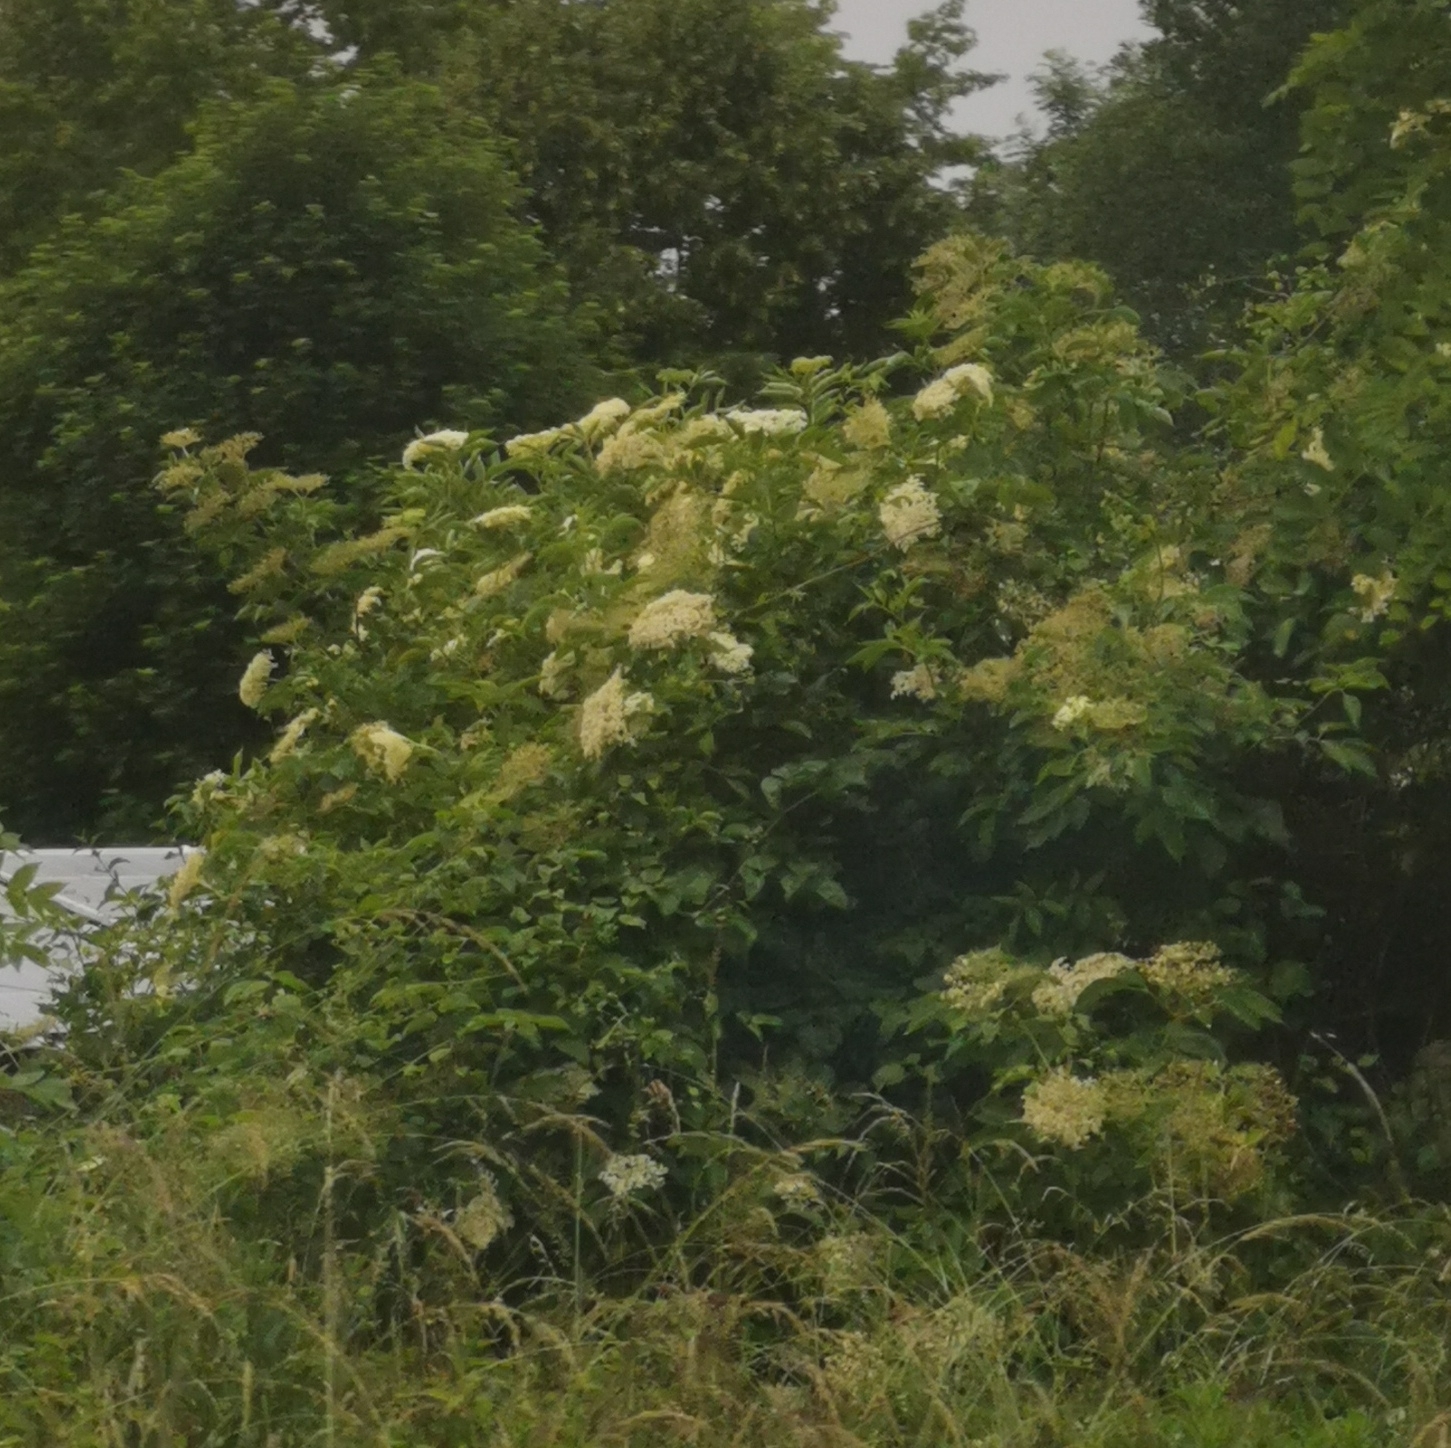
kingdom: Plantae
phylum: Tracheophyta
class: Magnoliopsida
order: Dipsacales
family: Viburnaceae
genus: Sambucus
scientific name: Sambucus nigra
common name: Elder
